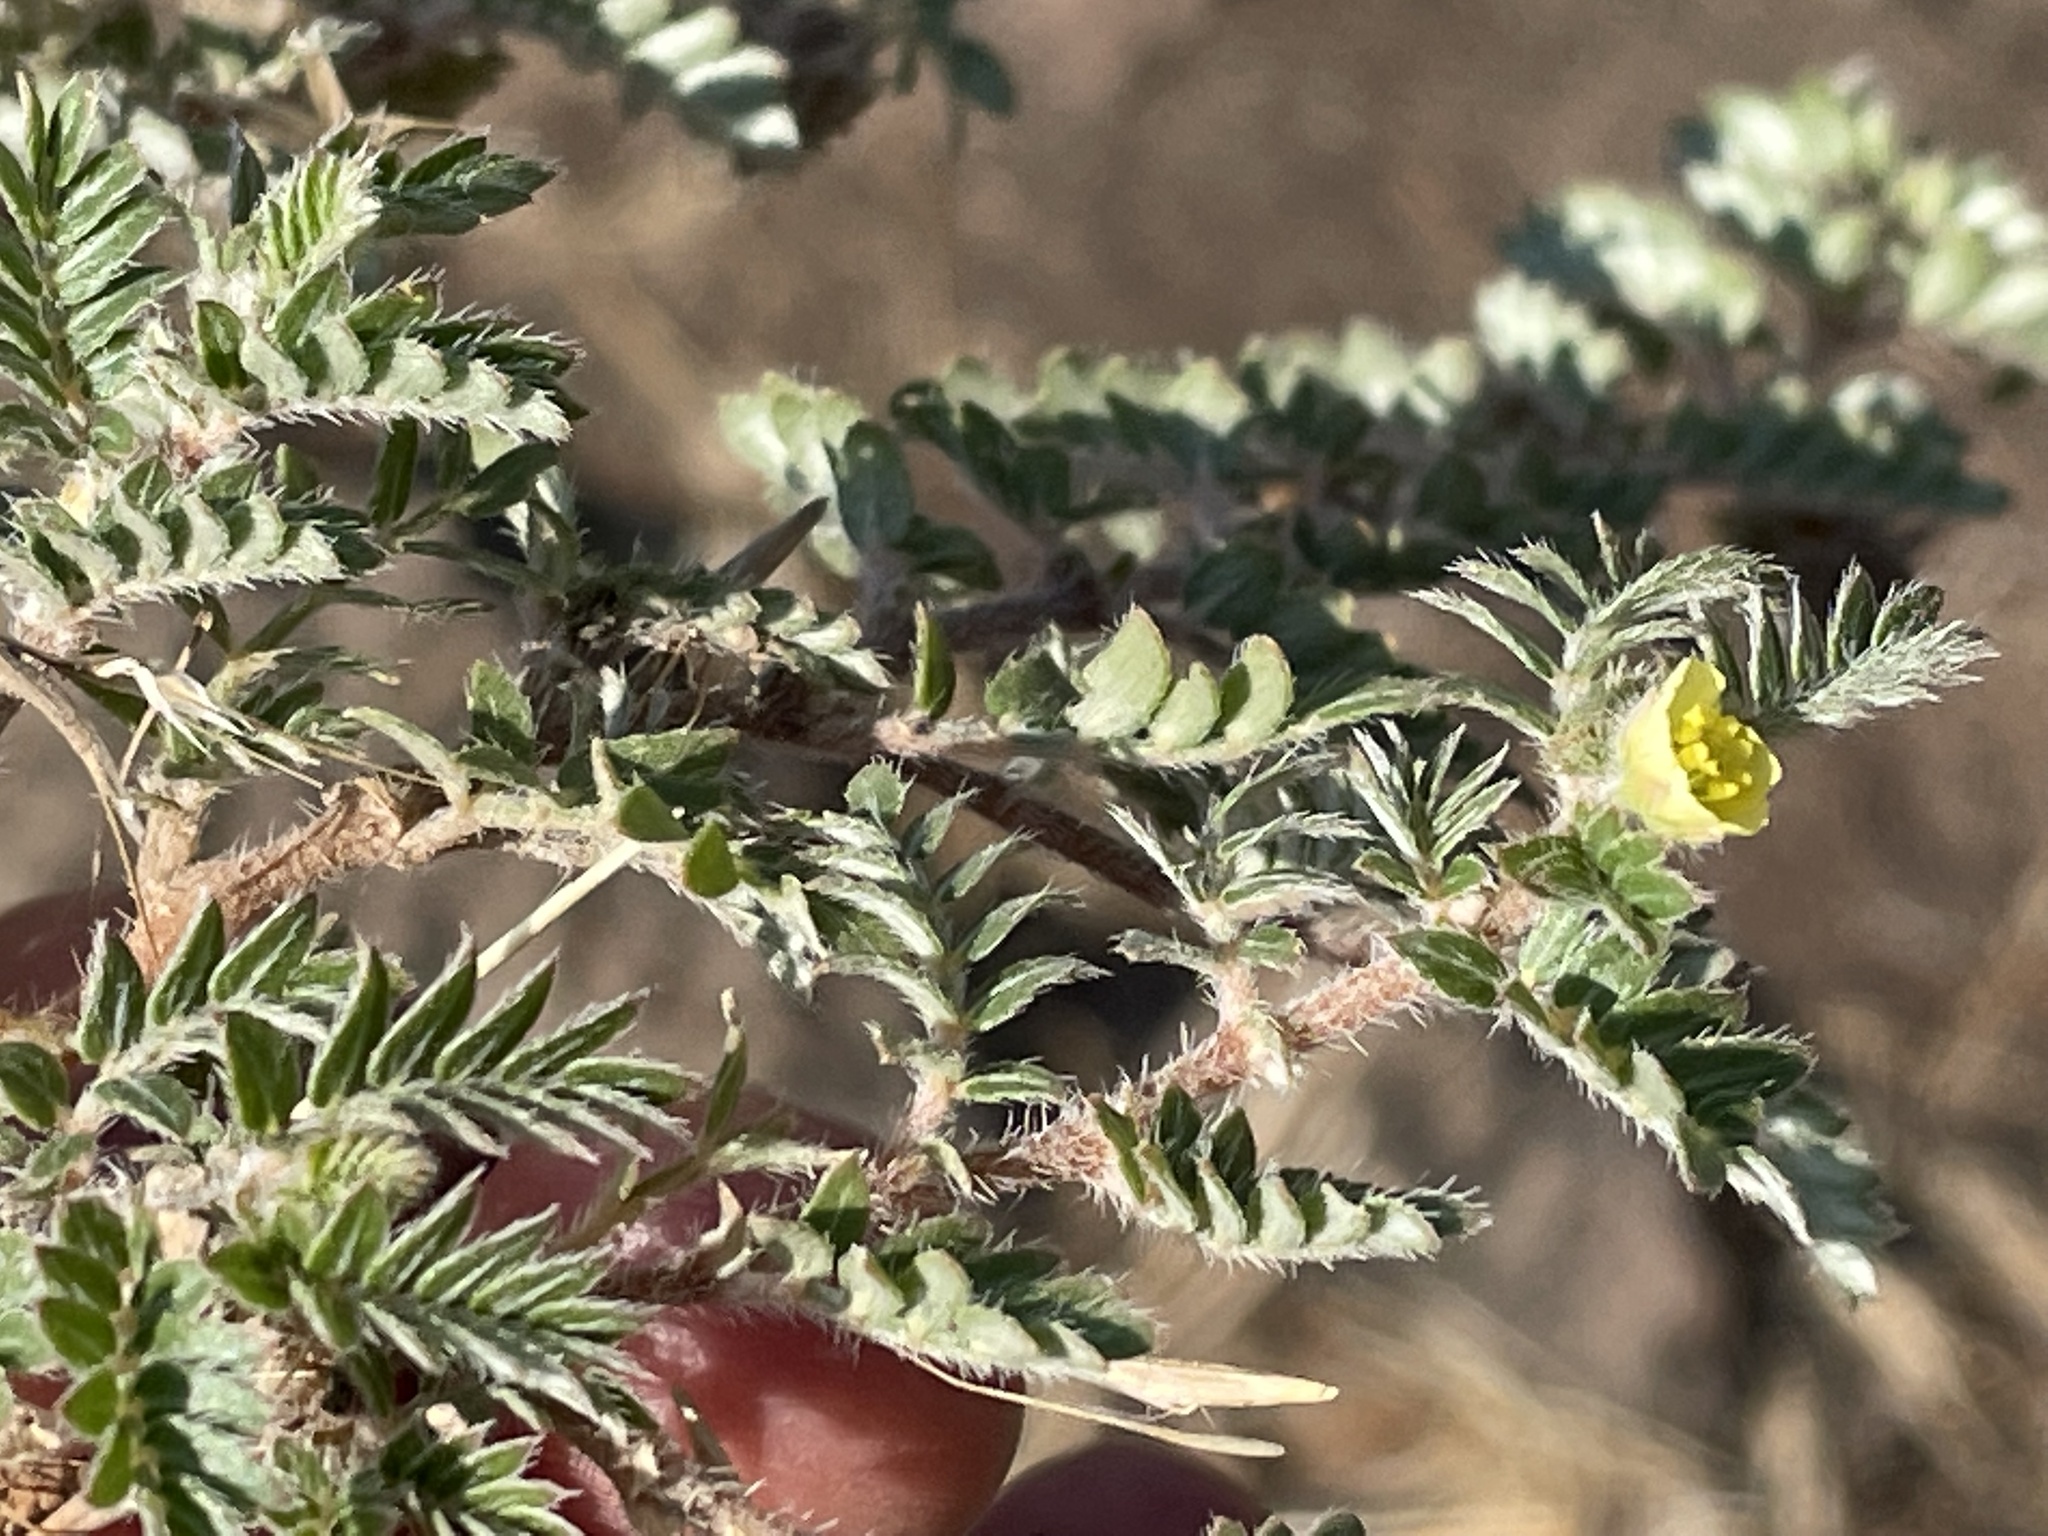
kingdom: Plantae
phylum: Tracheophyta
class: Magnoliopsida
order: Zygophyllales
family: Zygophyllaceae
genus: Tribulus
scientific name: Tribulus terrestris
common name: Puncturevine
